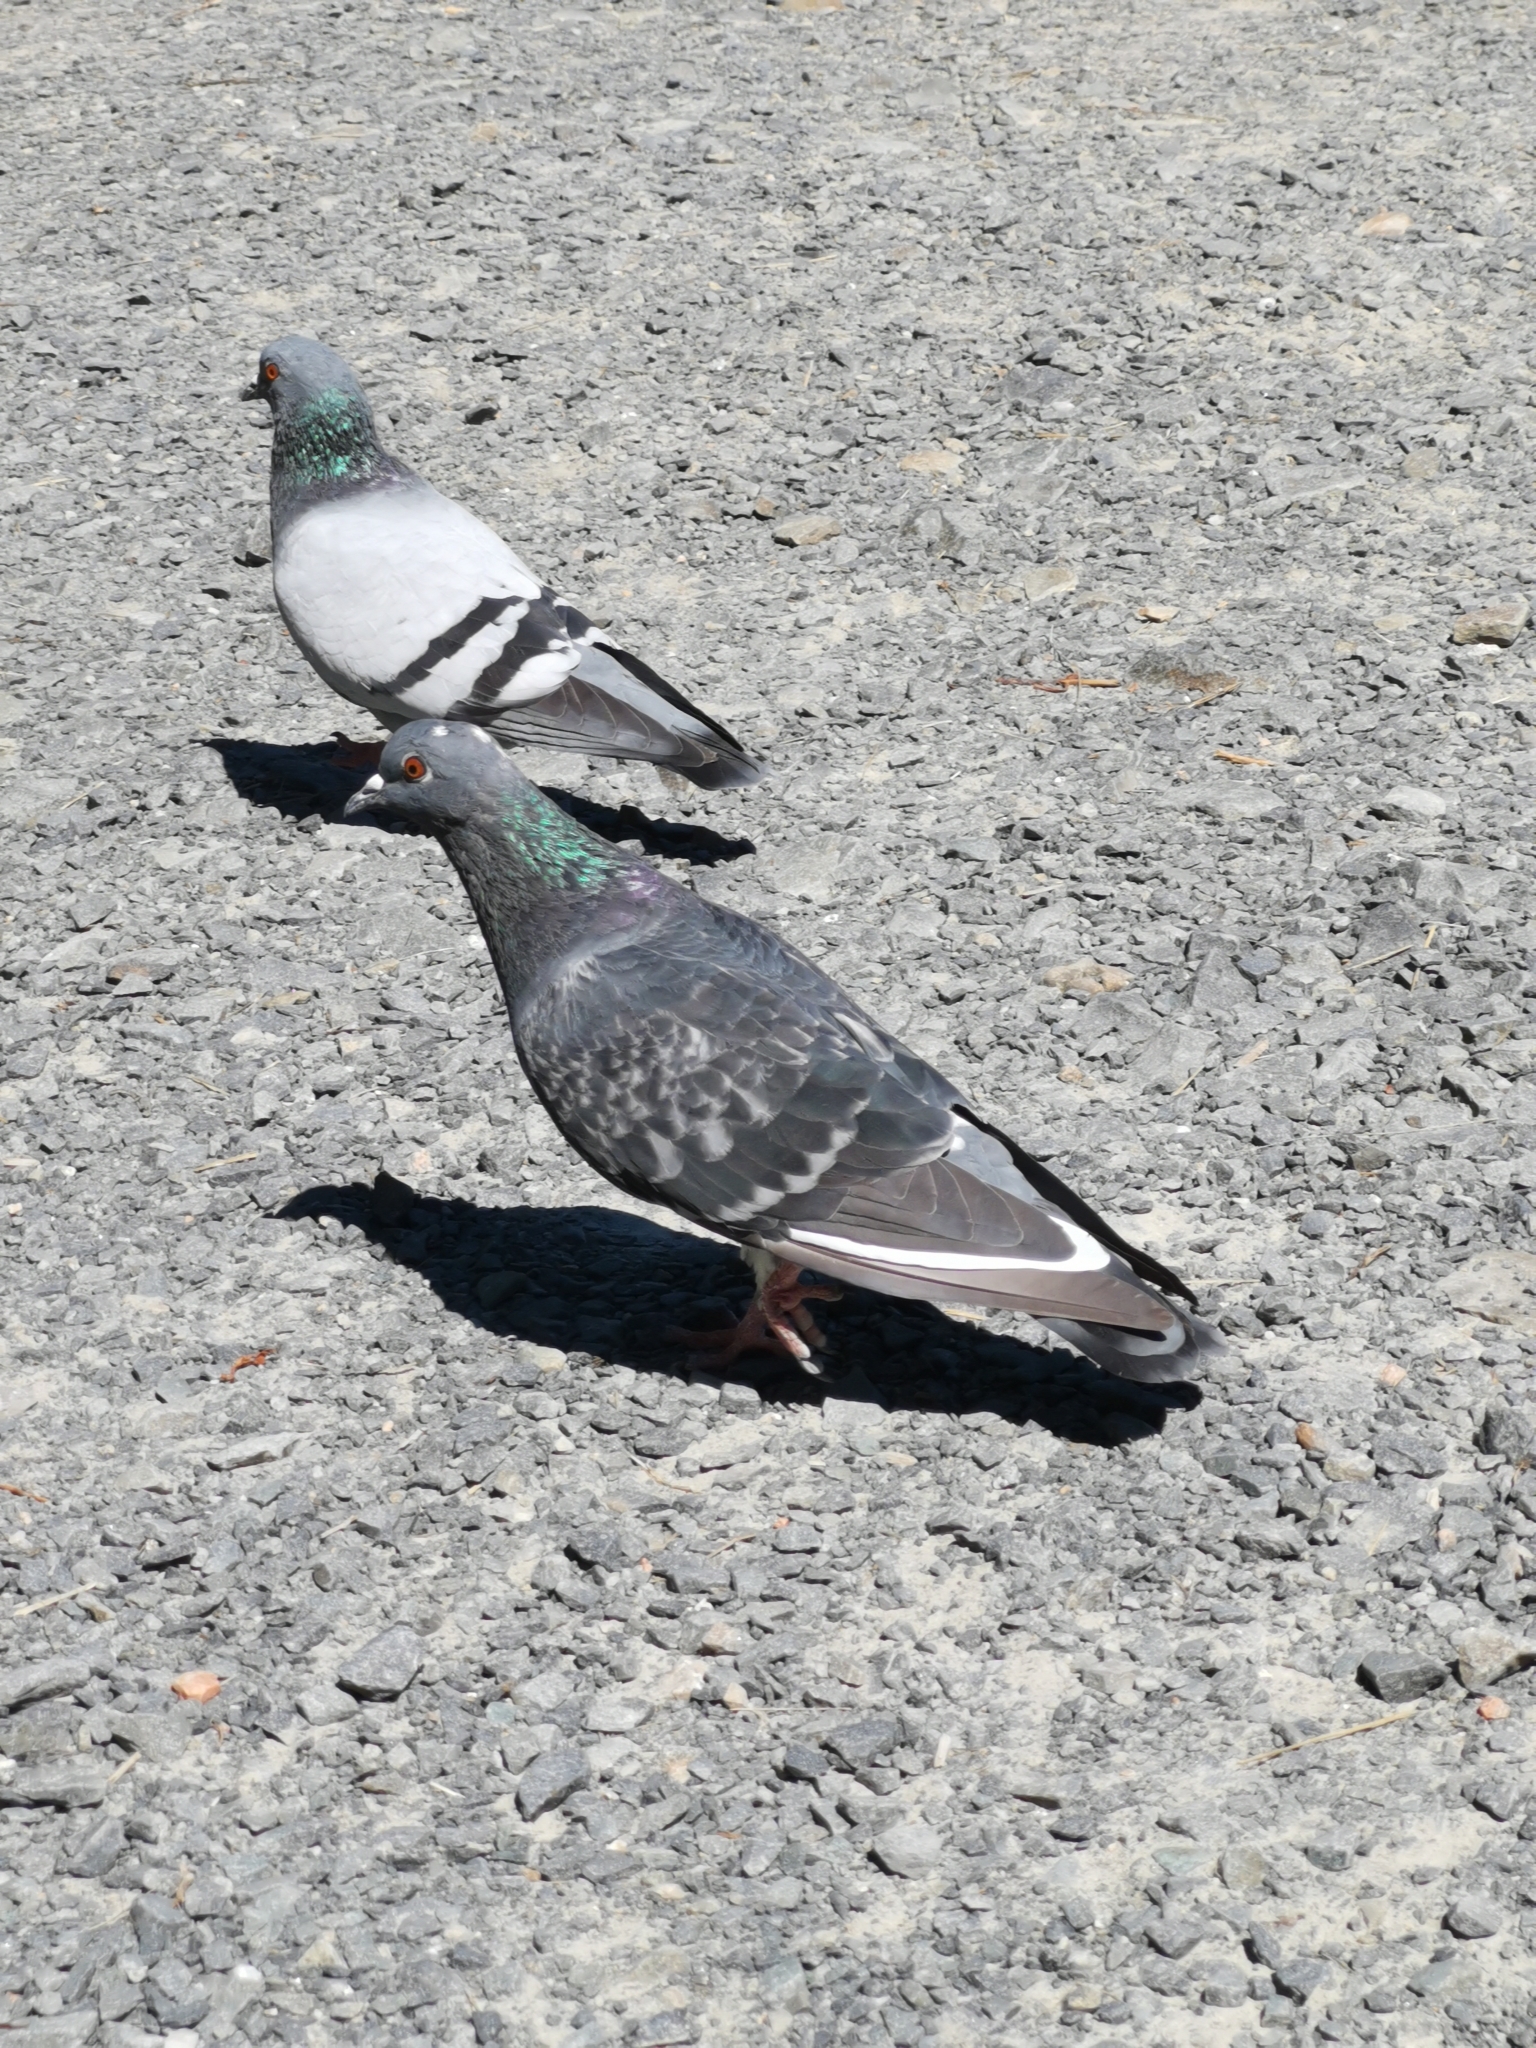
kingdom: Animalia
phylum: Chordata
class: Aves
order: Columbiformes
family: Columbidae
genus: Columba
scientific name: Columba livia
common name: Rock pigeon
